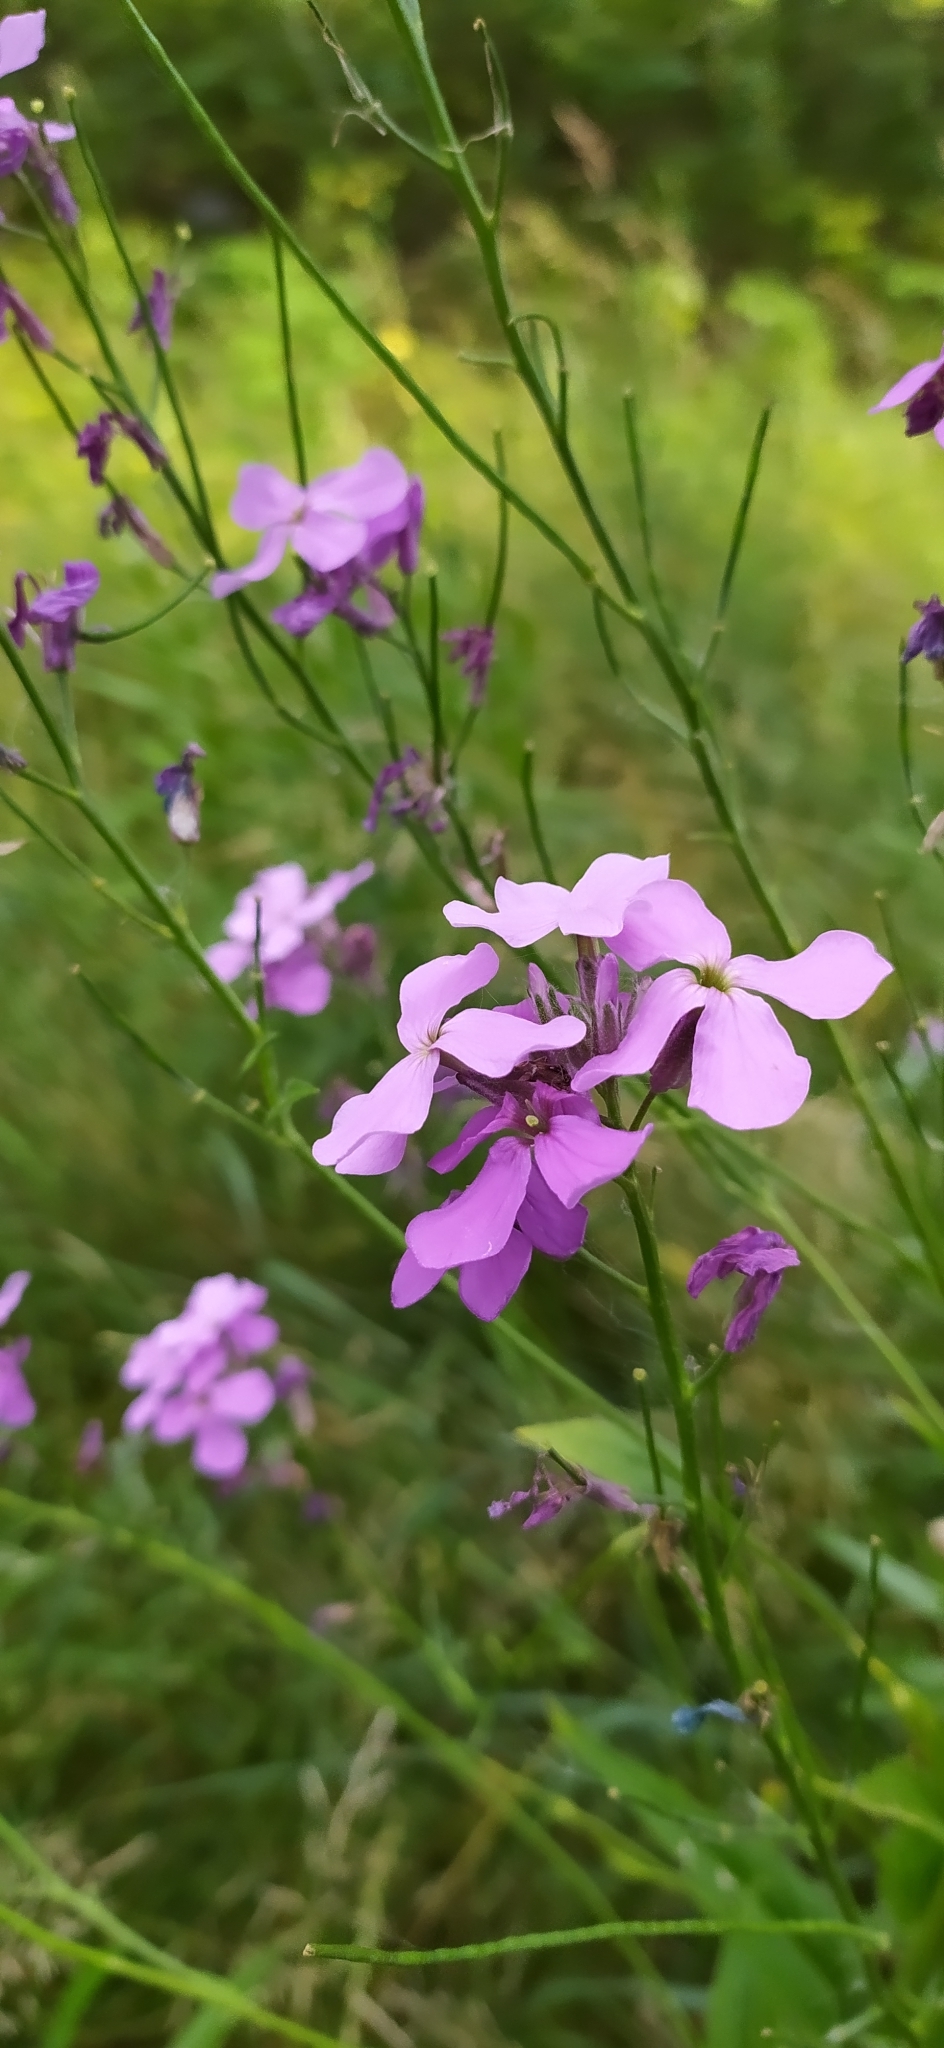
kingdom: Plantae
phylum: Tracheophyta
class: Magnoliopsida
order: Brassicales
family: Brassicaceae
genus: Hesperis
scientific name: Hesperis matronalis
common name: Dame's-violet
